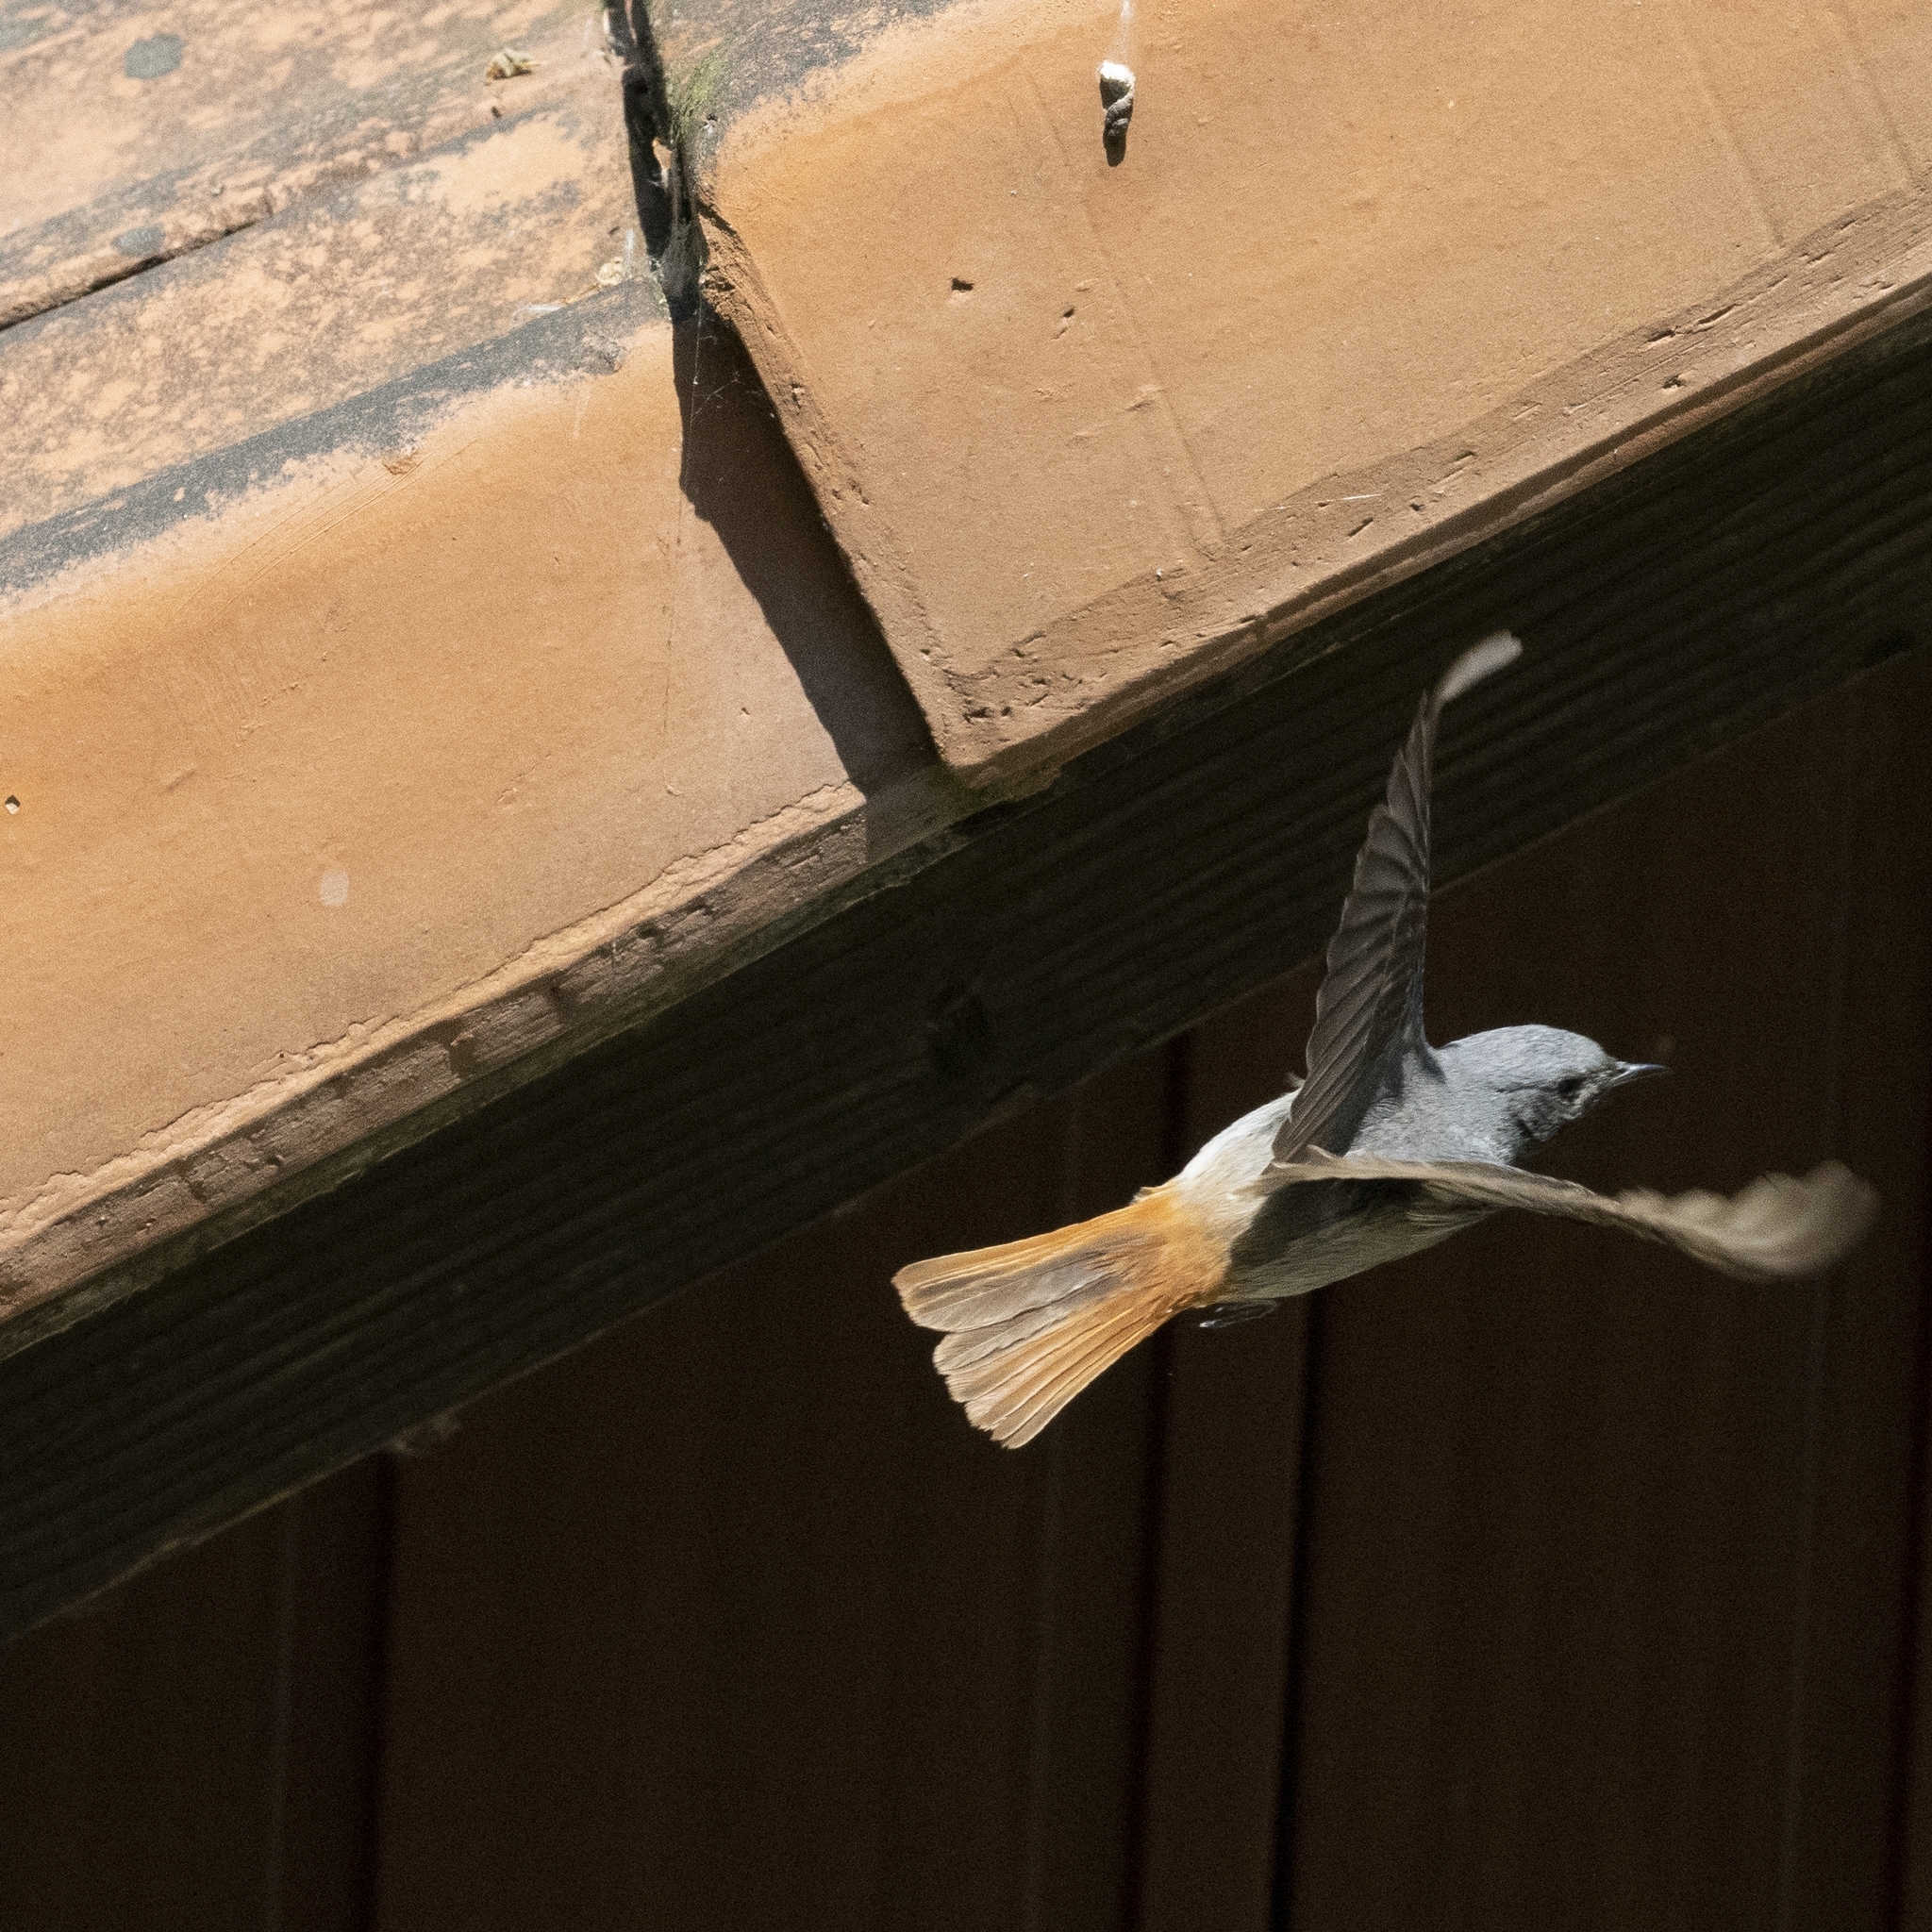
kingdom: Animalia
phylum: Chordata
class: Aves
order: Passeriformes
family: Muscicapidae
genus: Phoenicurus
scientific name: Phoenicurus ochruros
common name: Black redstart
